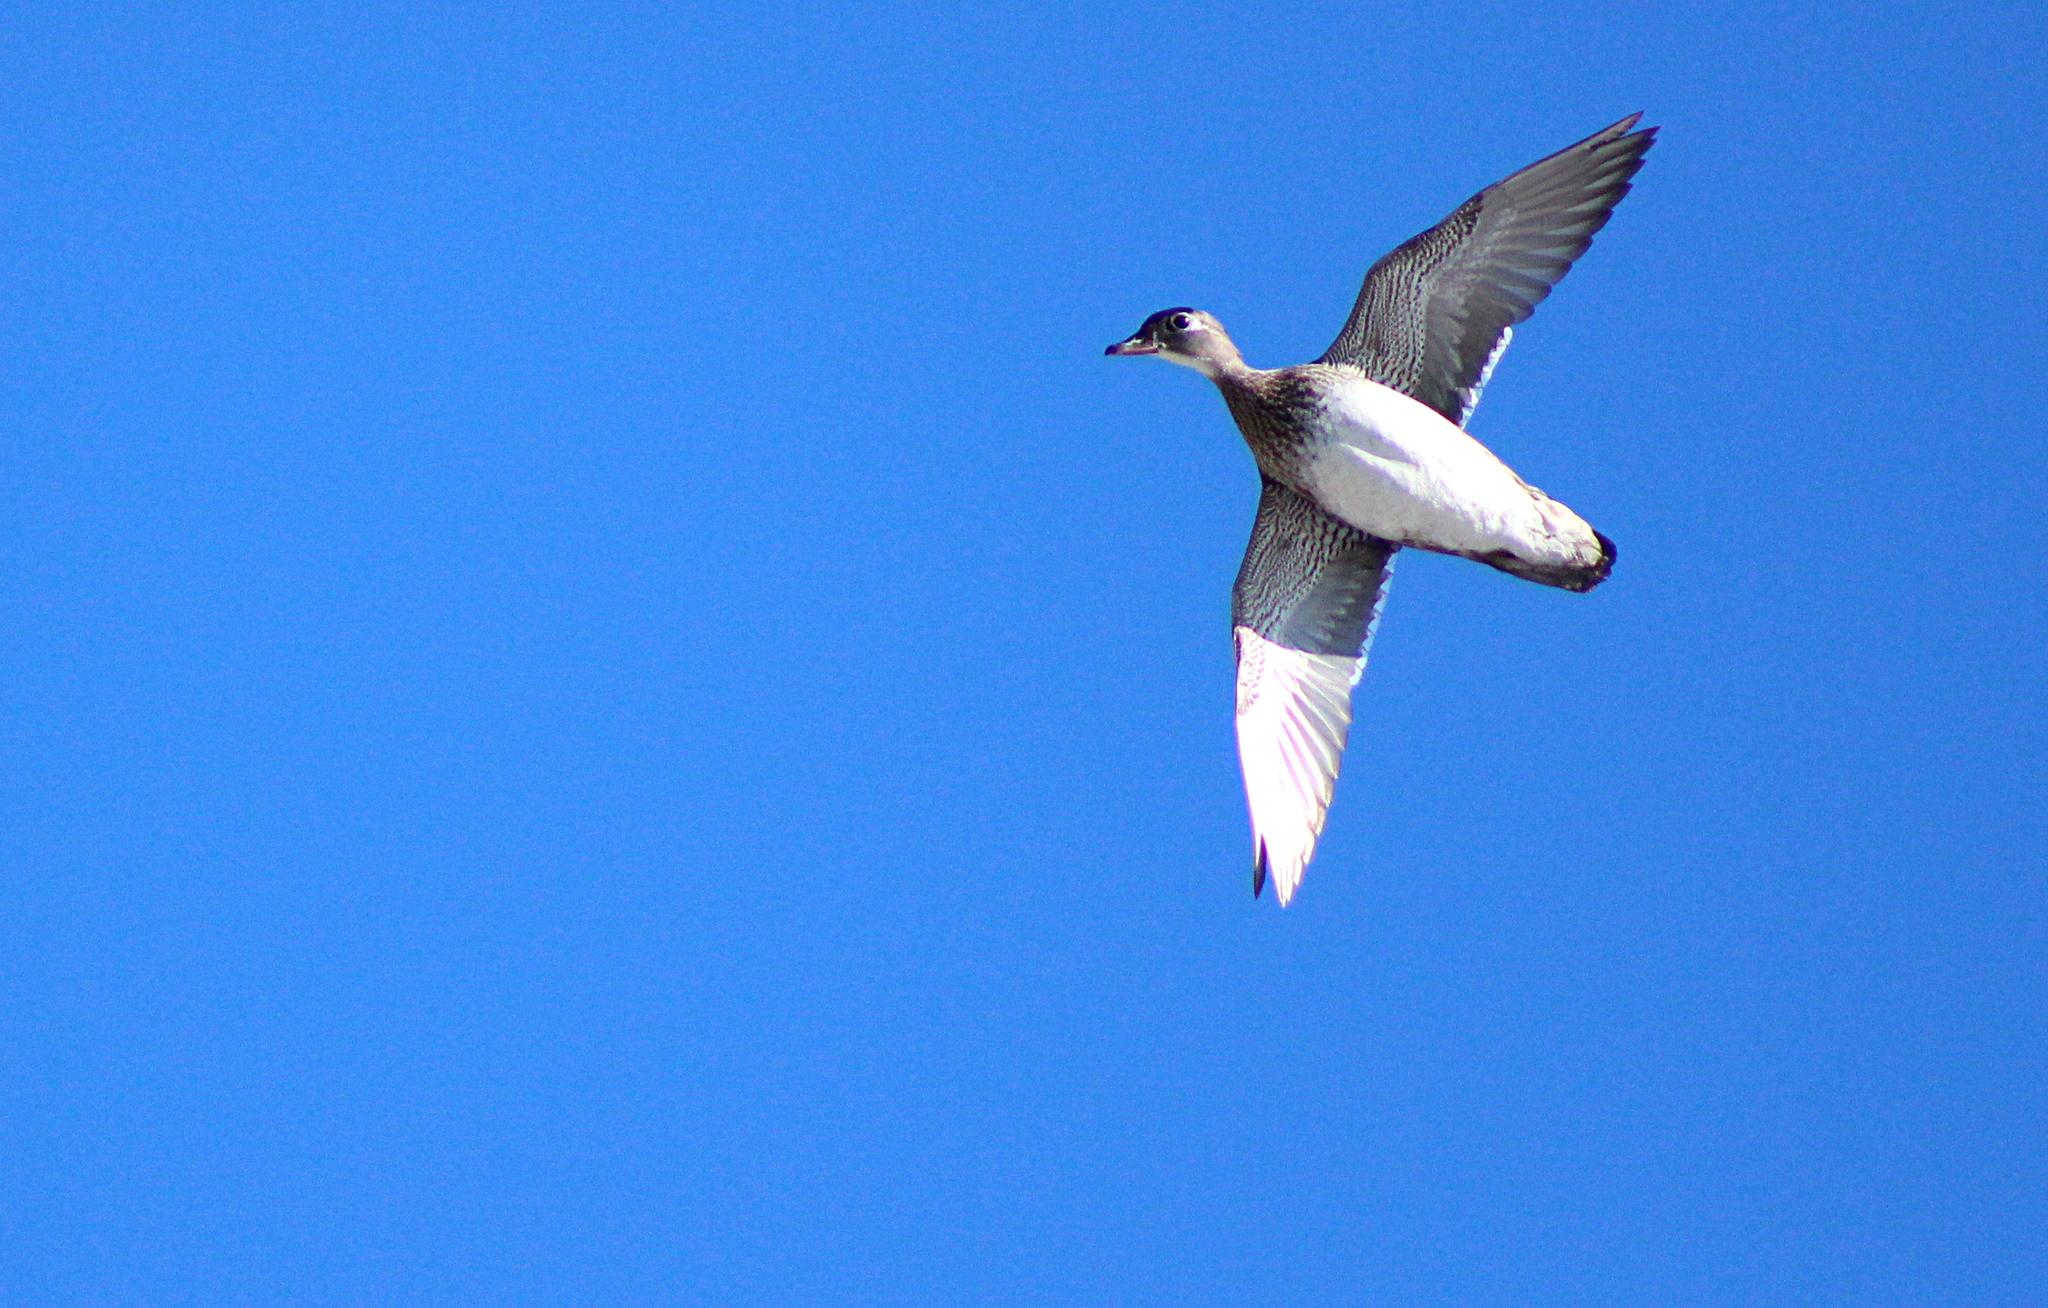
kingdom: Animalia
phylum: Chordata
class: Aves
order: Anseriformes
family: Anatidae
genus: Aix
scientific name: Aix sponsa
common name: Wood duck
